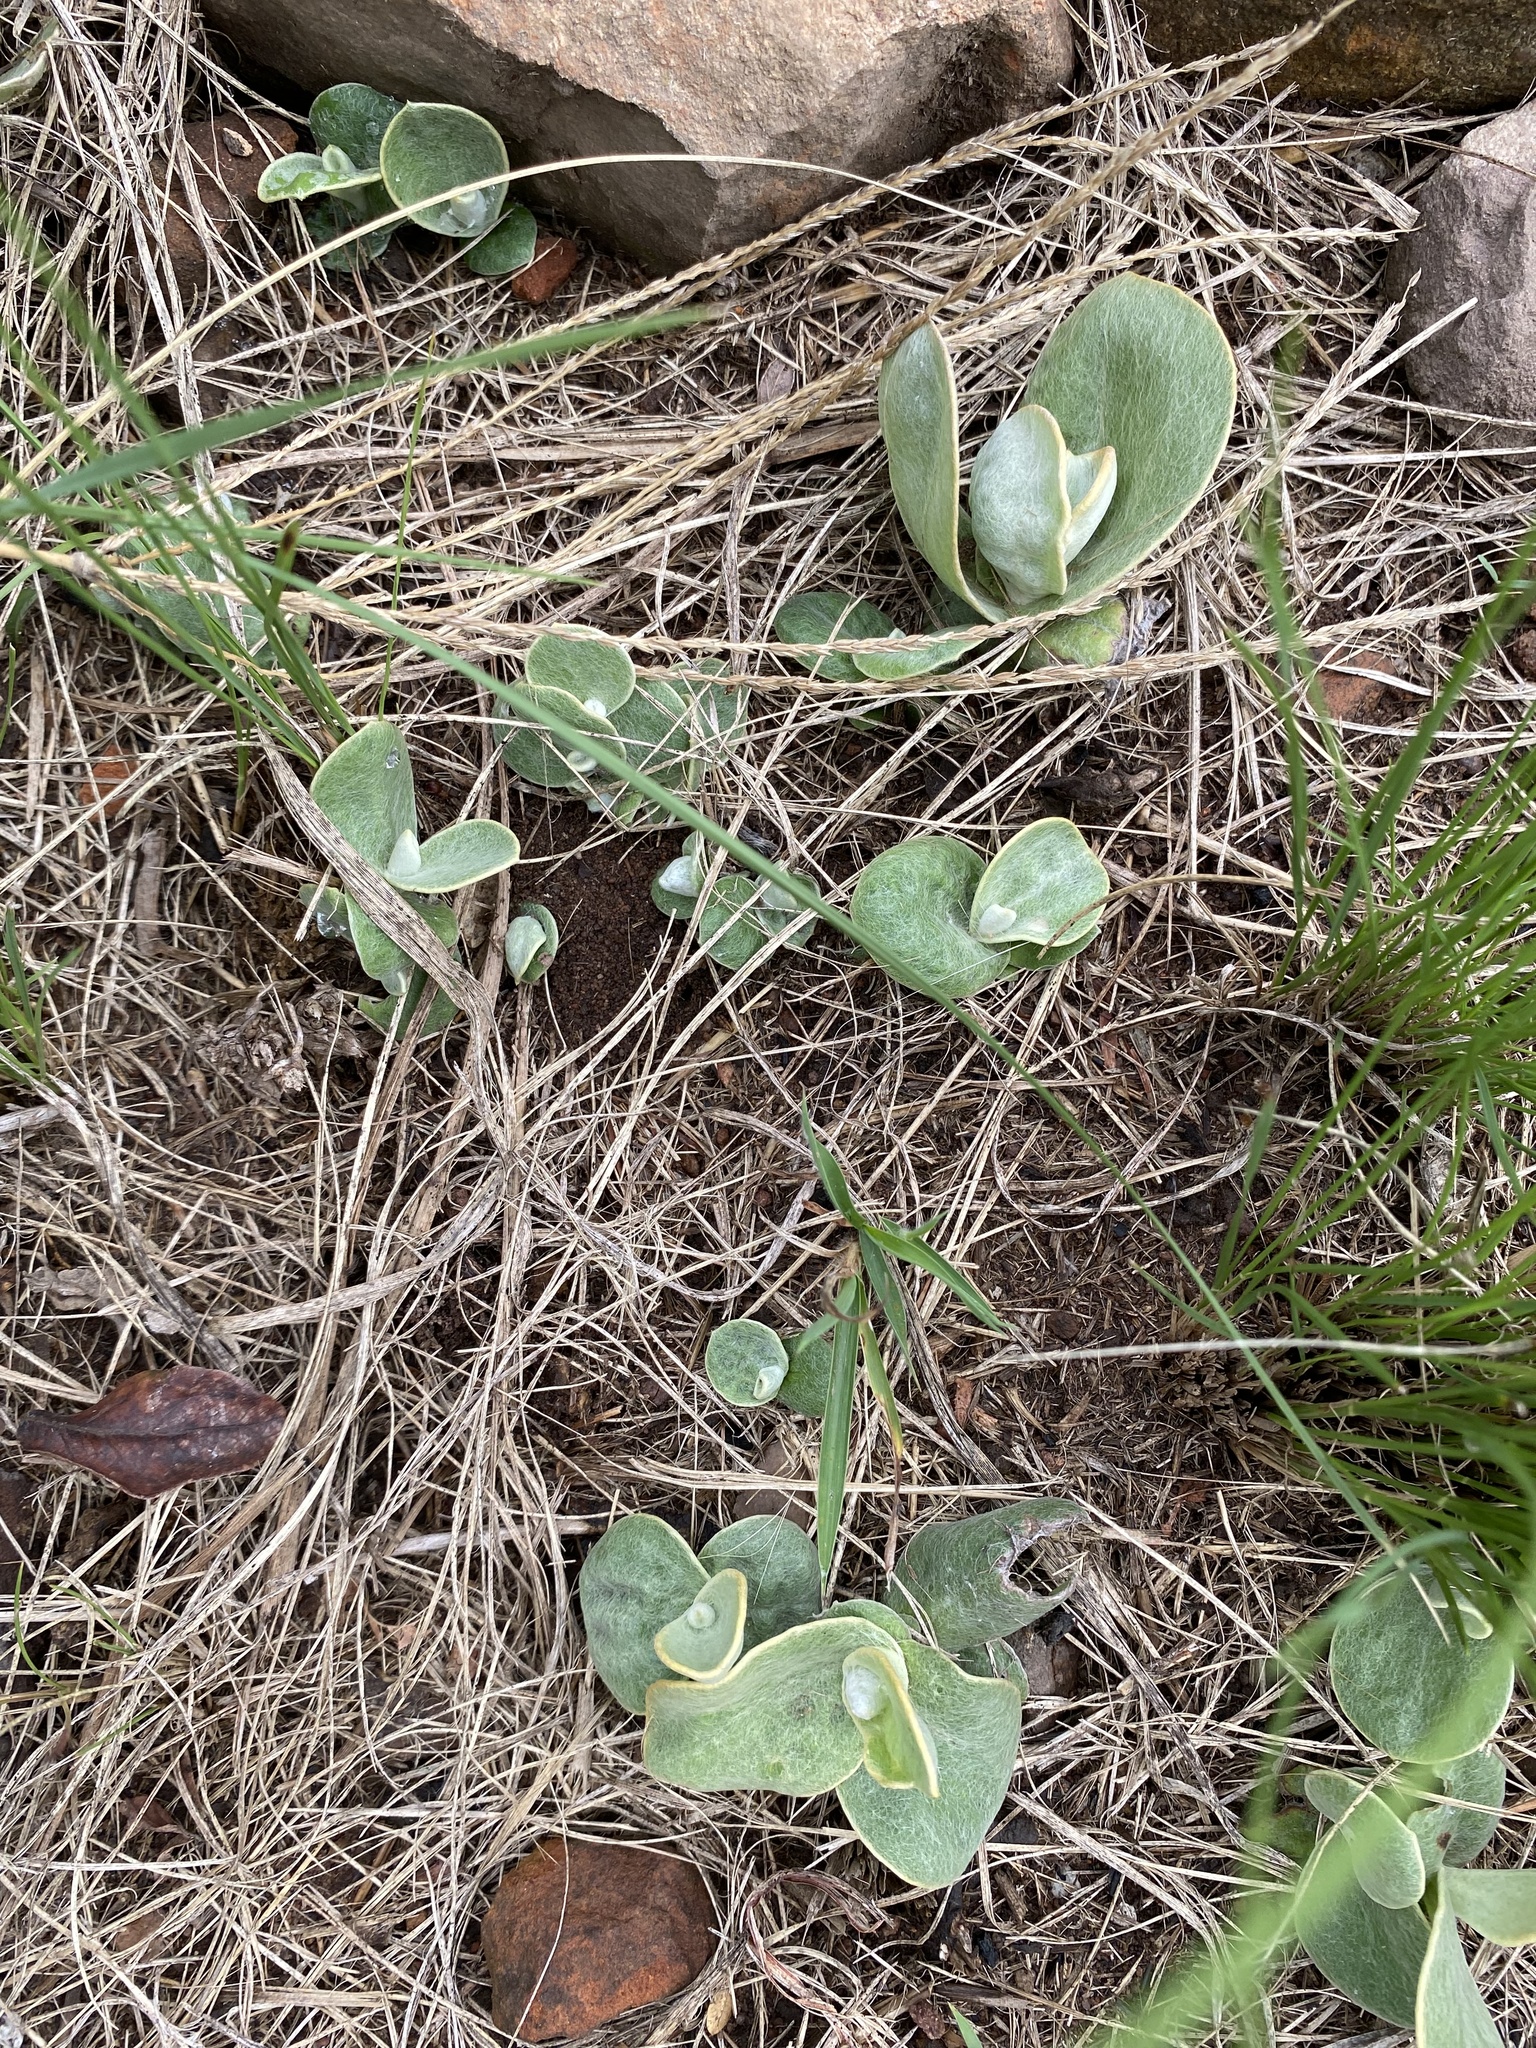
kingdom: Plantae
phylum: Tracheophyta
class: Magnoliopsida
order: Asterales
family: Asteraceae
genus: Helichrysum
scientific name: Helichrysum pannosum
